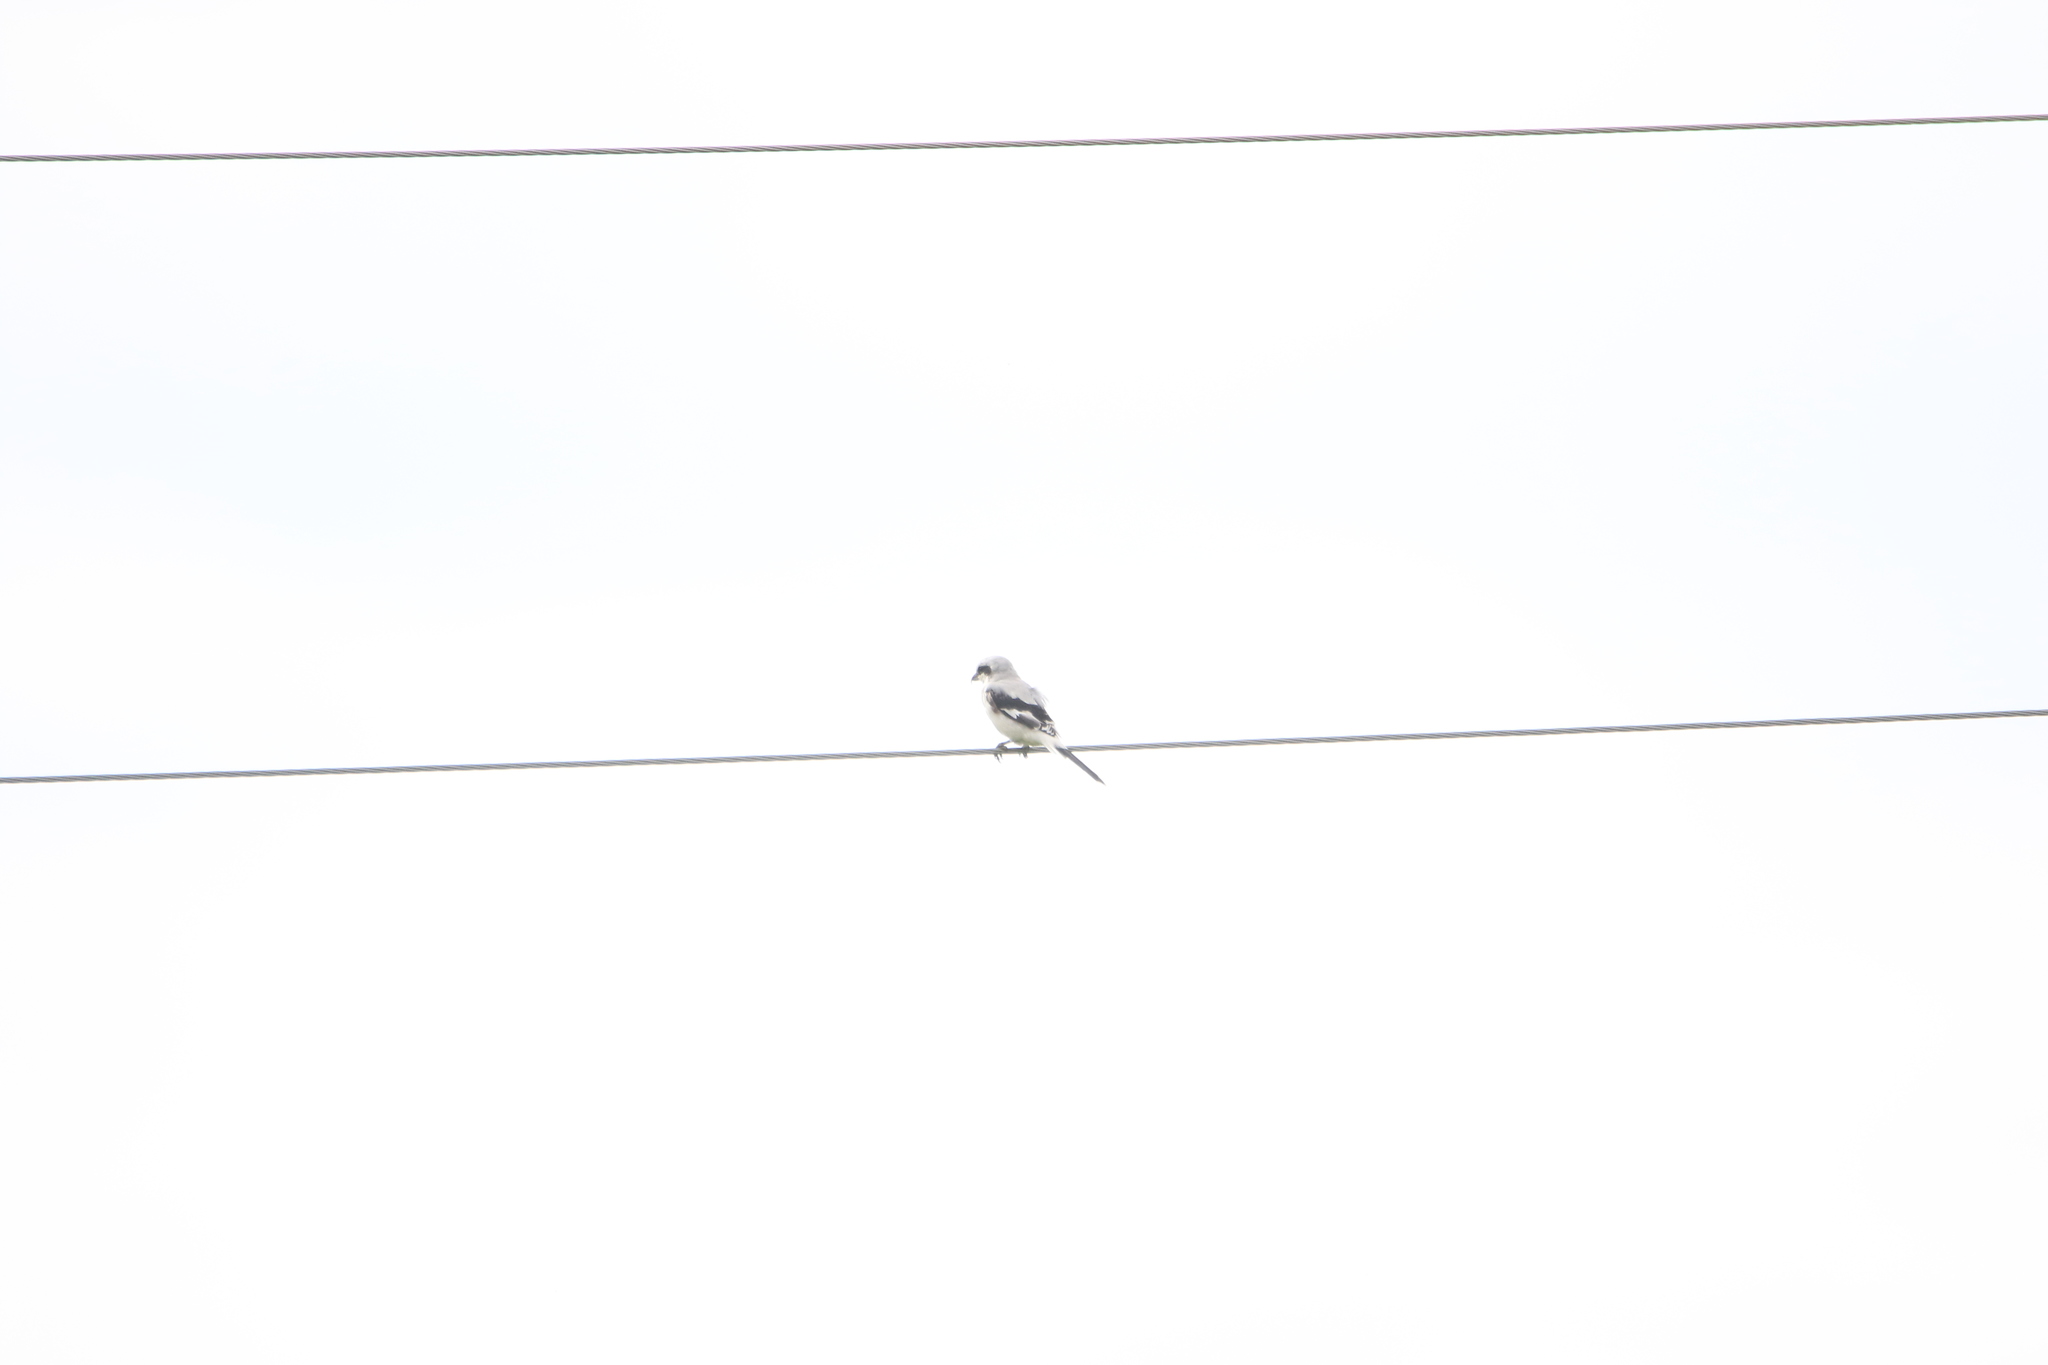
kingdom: Animalia
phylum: Chordata
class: Aves
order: Passeriformes
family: Laniidae
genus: Lanius
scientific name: Lanius excubitor
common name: Great grey shrike
